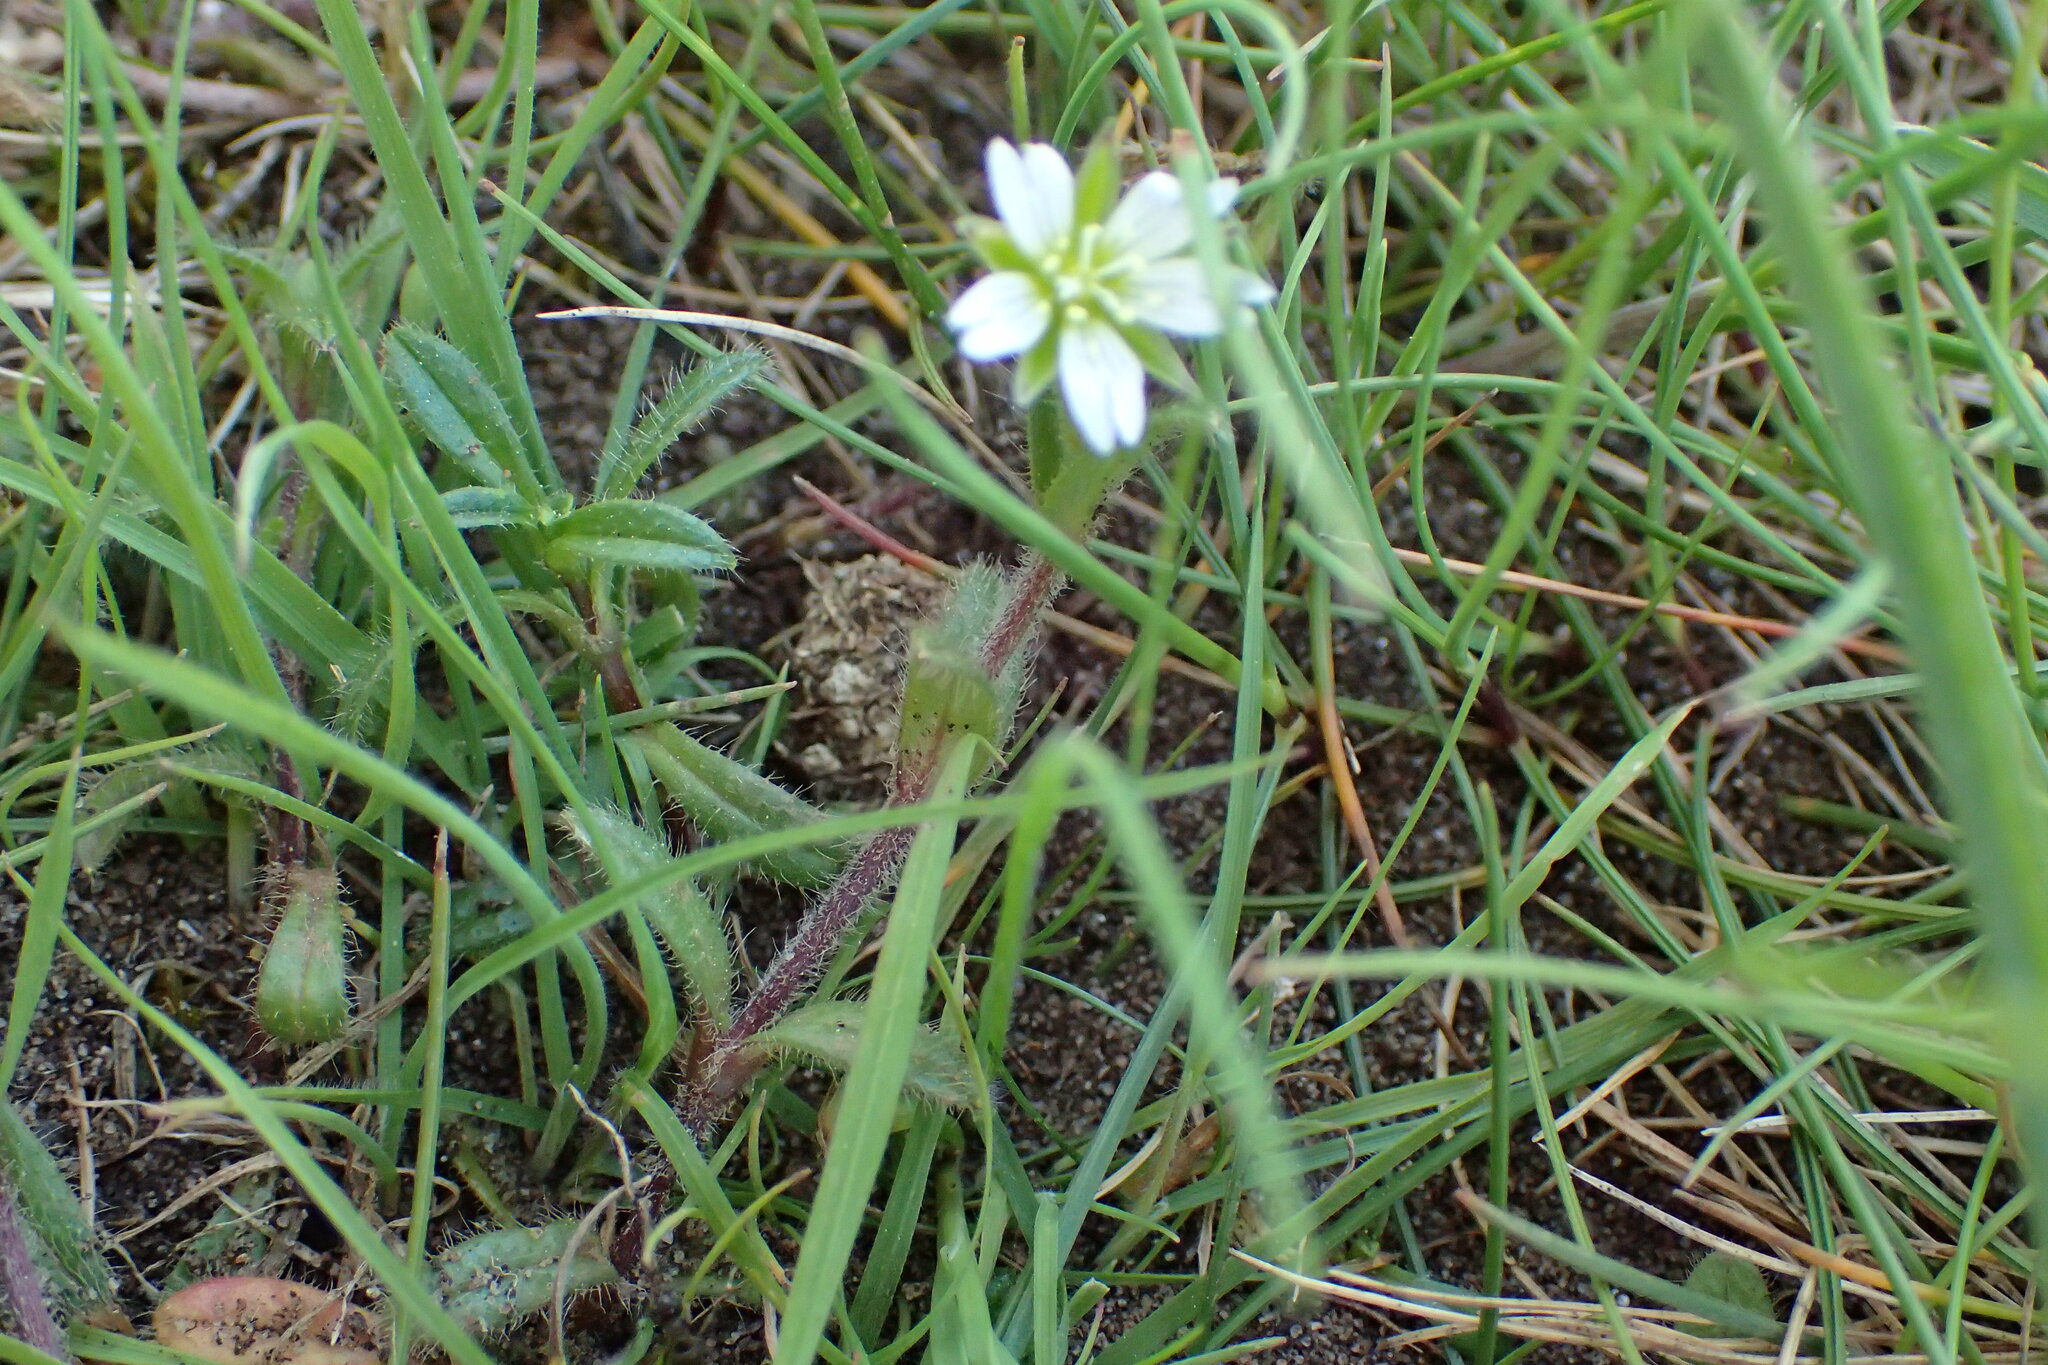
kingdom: Plantae
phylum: Tracheophyta
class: Magnoliopsida
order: Caryophyllales
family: Caryophyllaceae
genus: Cerastium
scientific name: Cerastium fontanum
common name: Common mouse-ear
